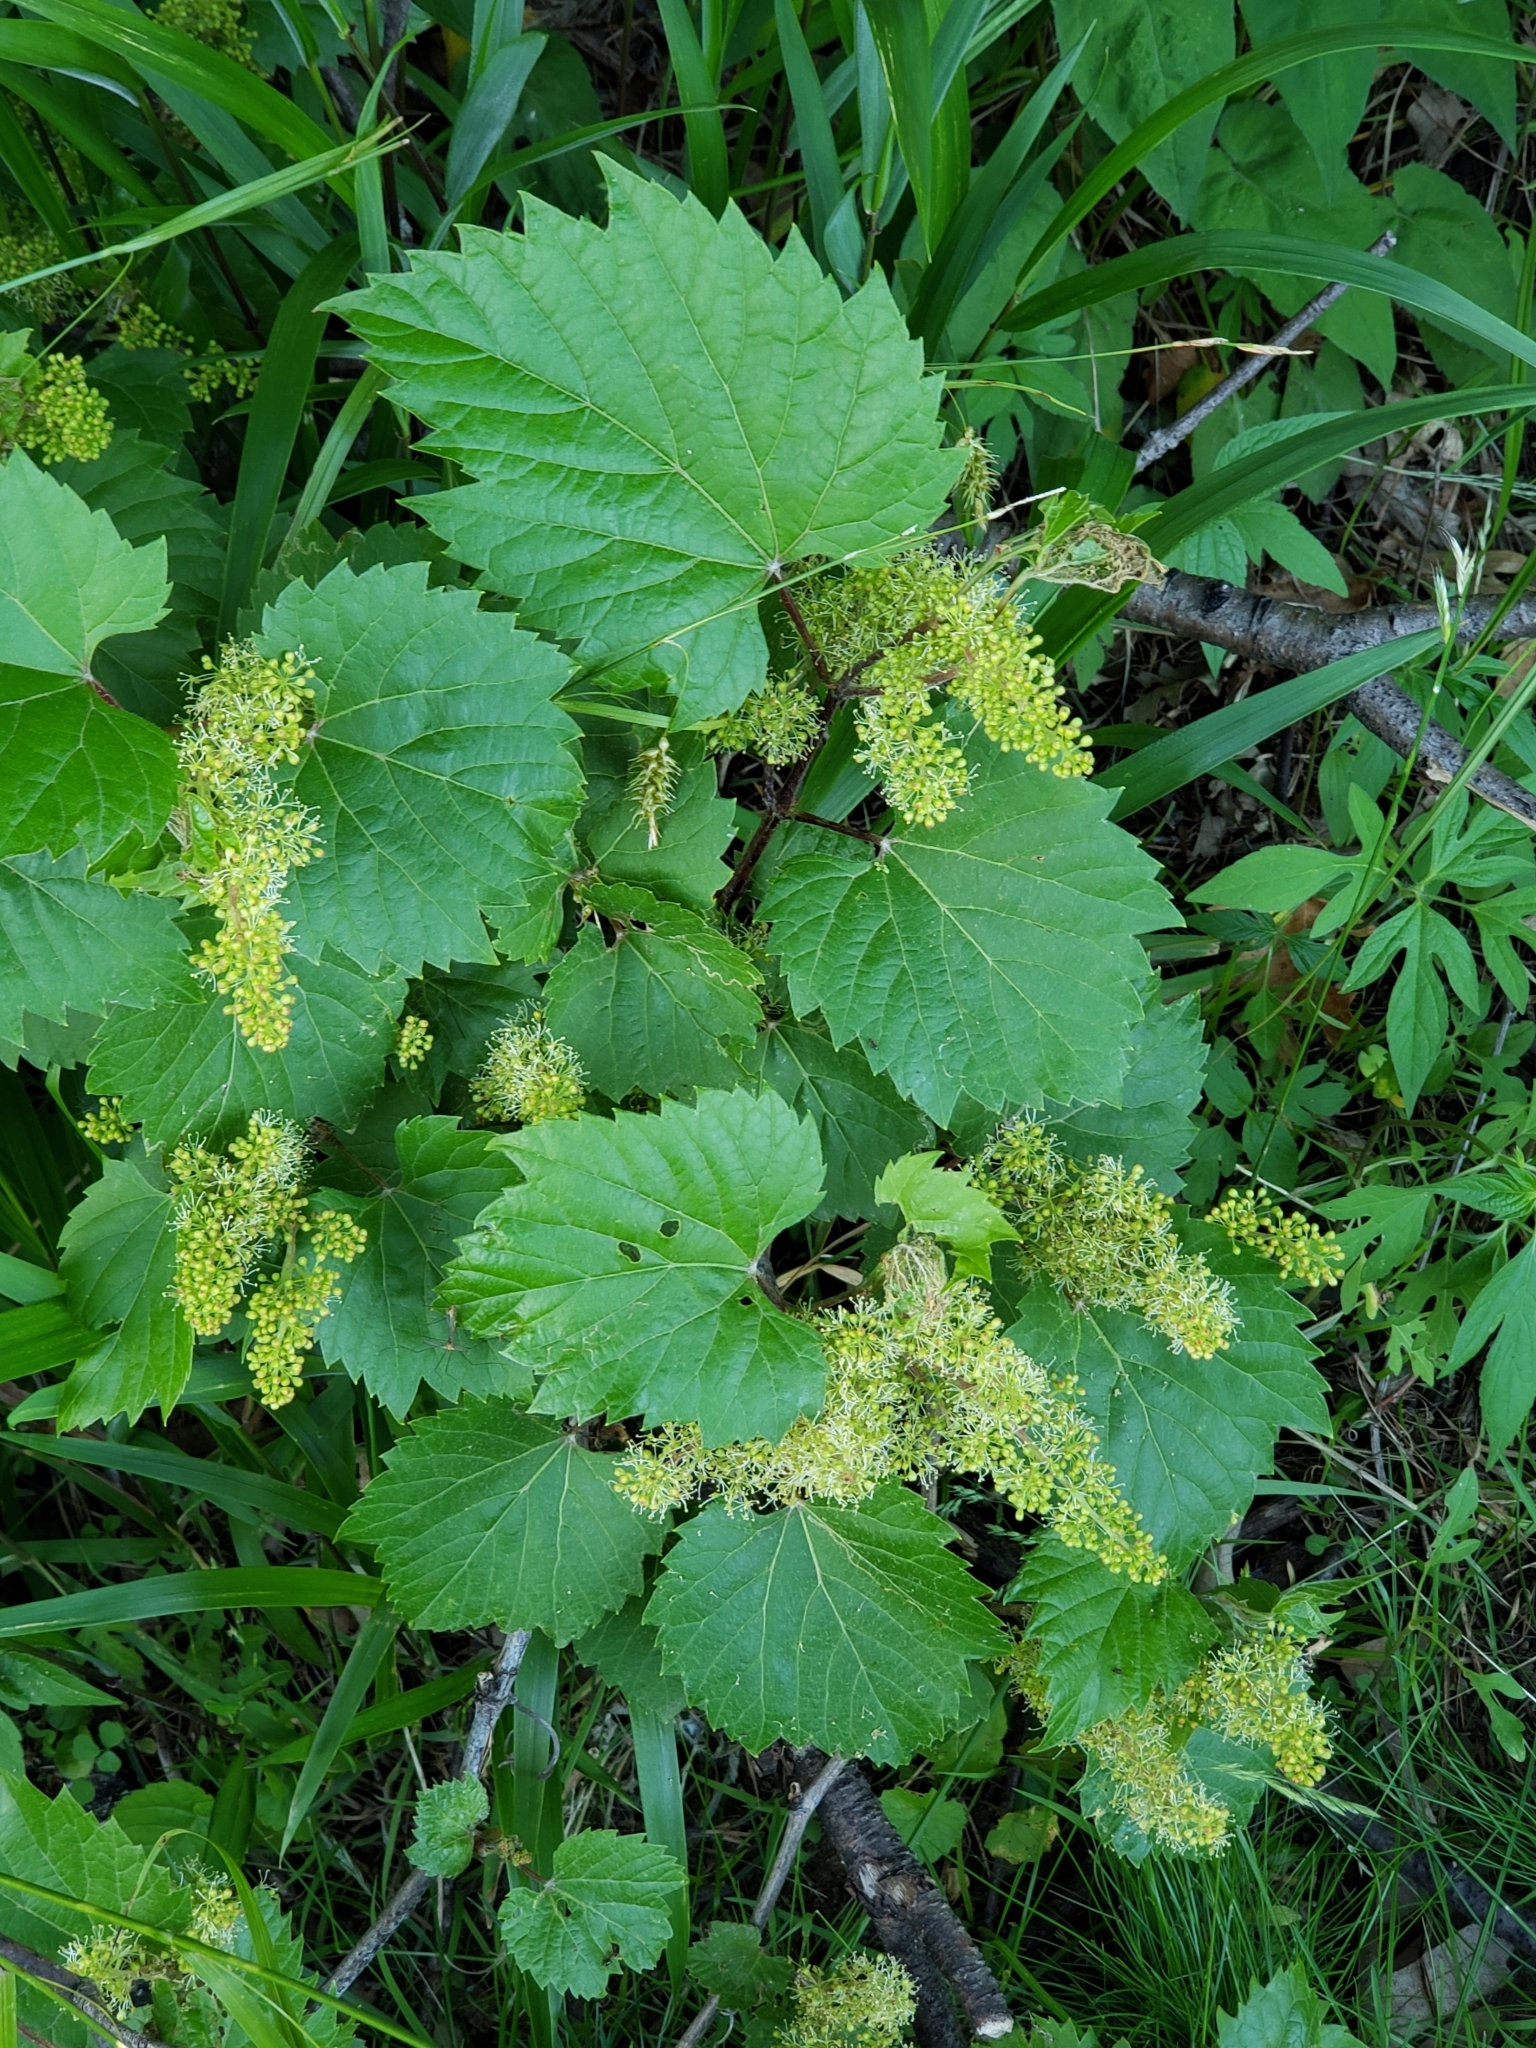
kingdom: Plantae
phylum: Tracheophyta
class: Magnoliopsida
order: Vitales
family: Vitaceae
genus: Vitis
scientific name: Vitis riparia
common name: Frost grape
